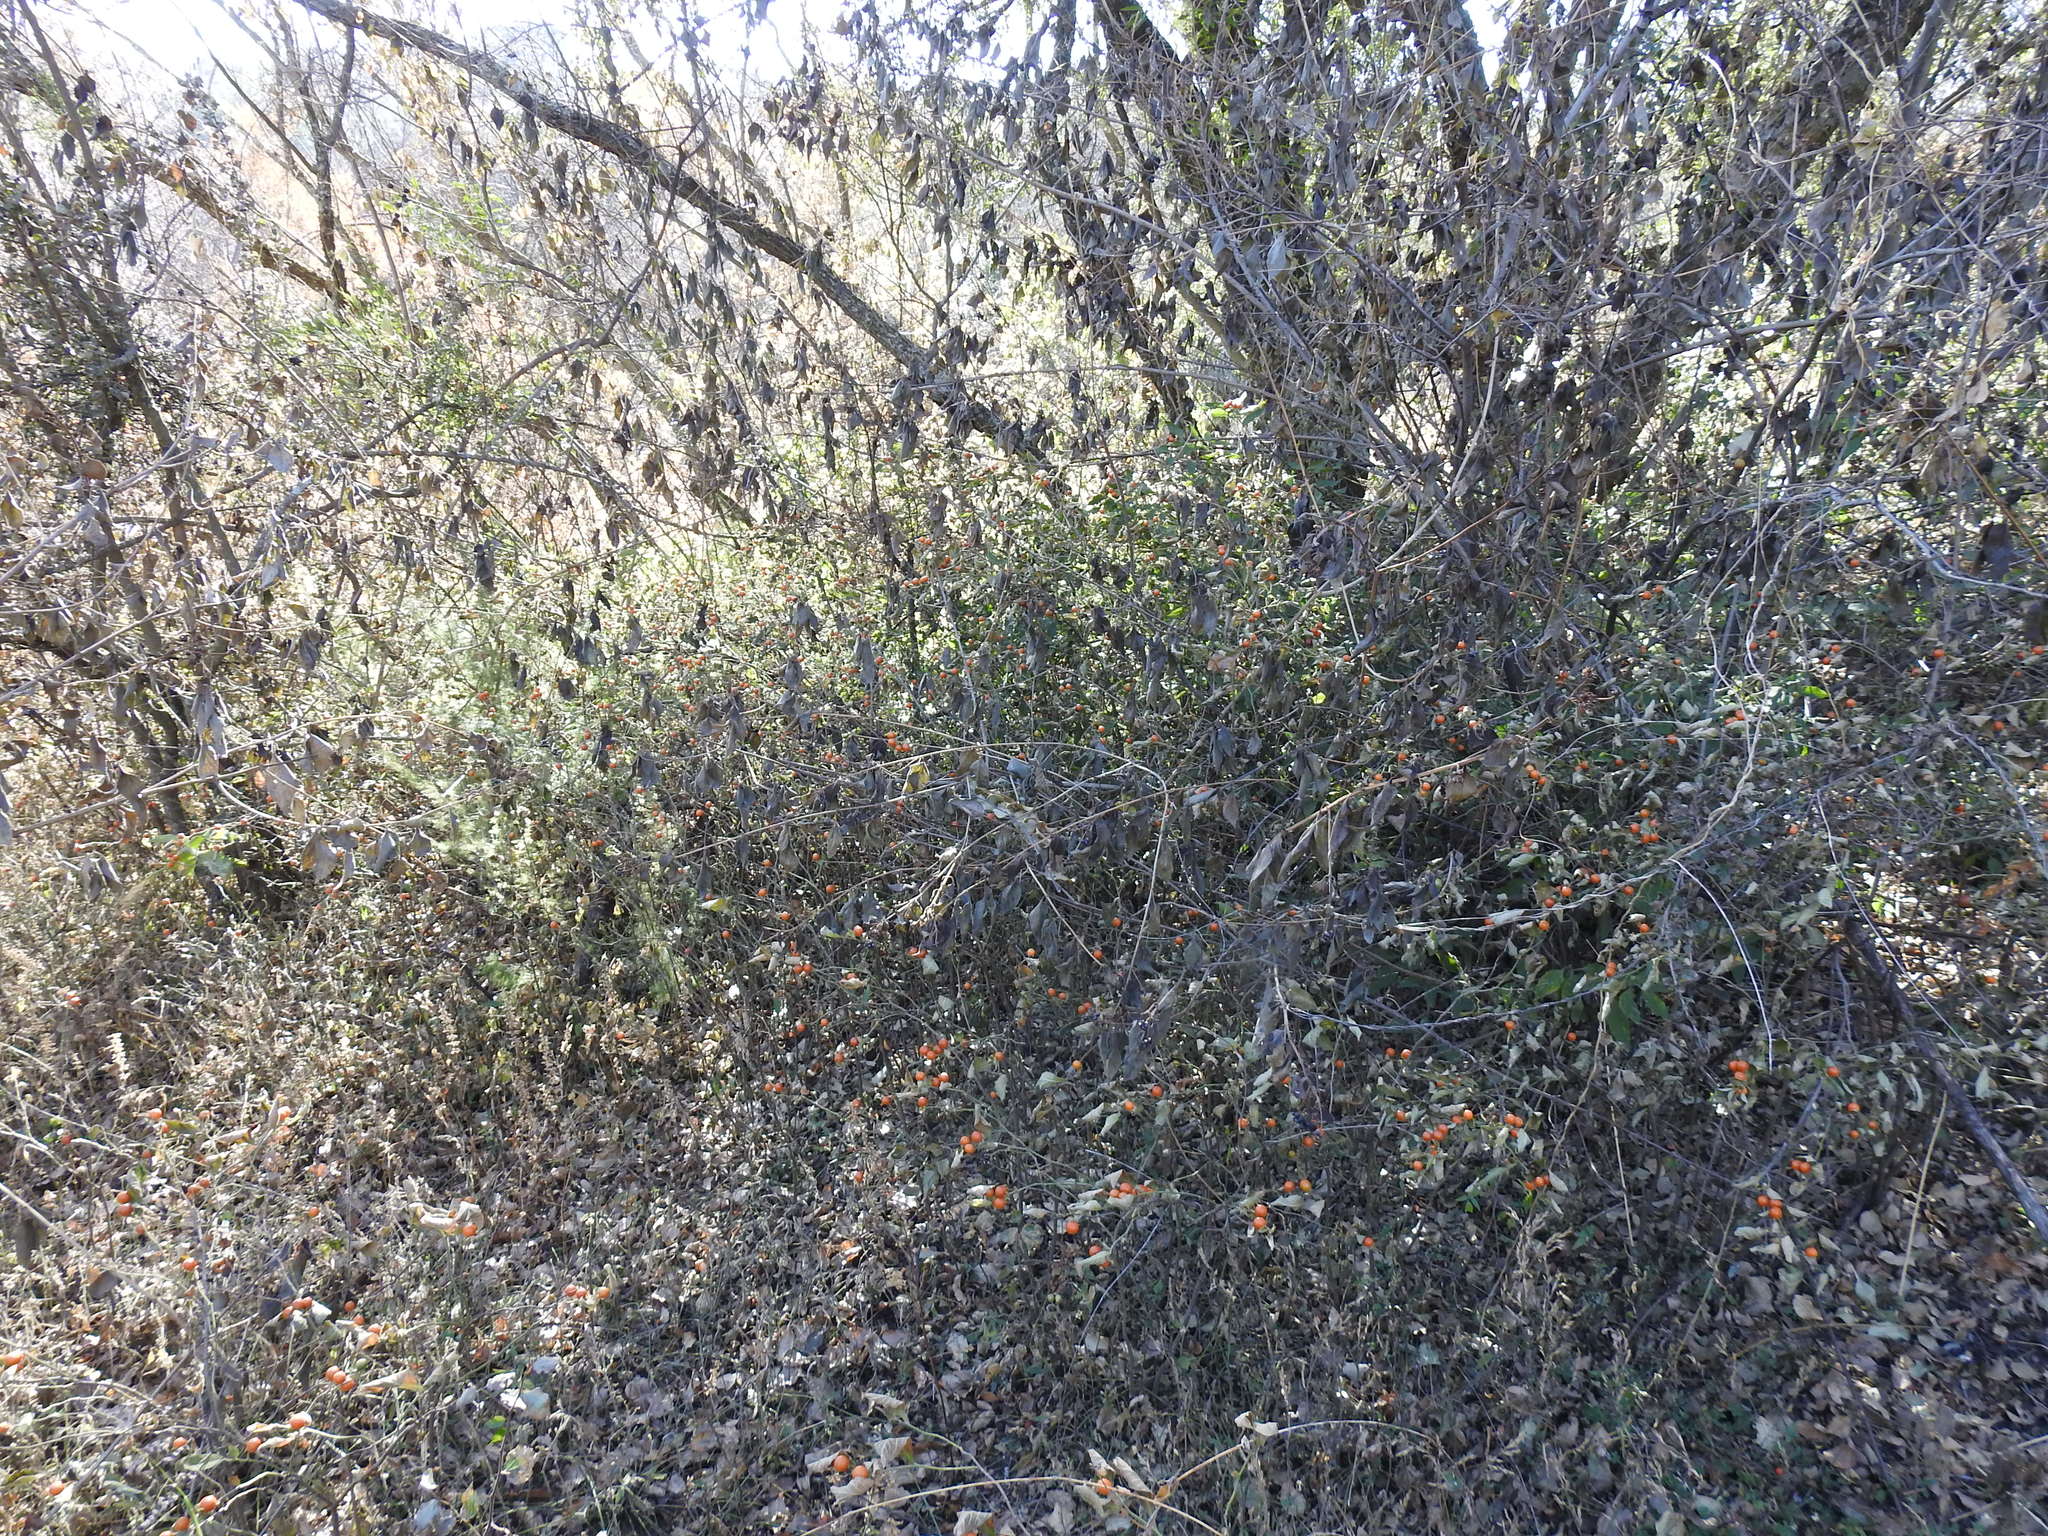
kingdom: Plantae
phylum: Tracheophyta
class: Magnoliopsida
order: Solanales
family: Solanaceae
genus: Solanum
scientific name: Solanum pseudocapsicum
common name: Jerusalem cherry
